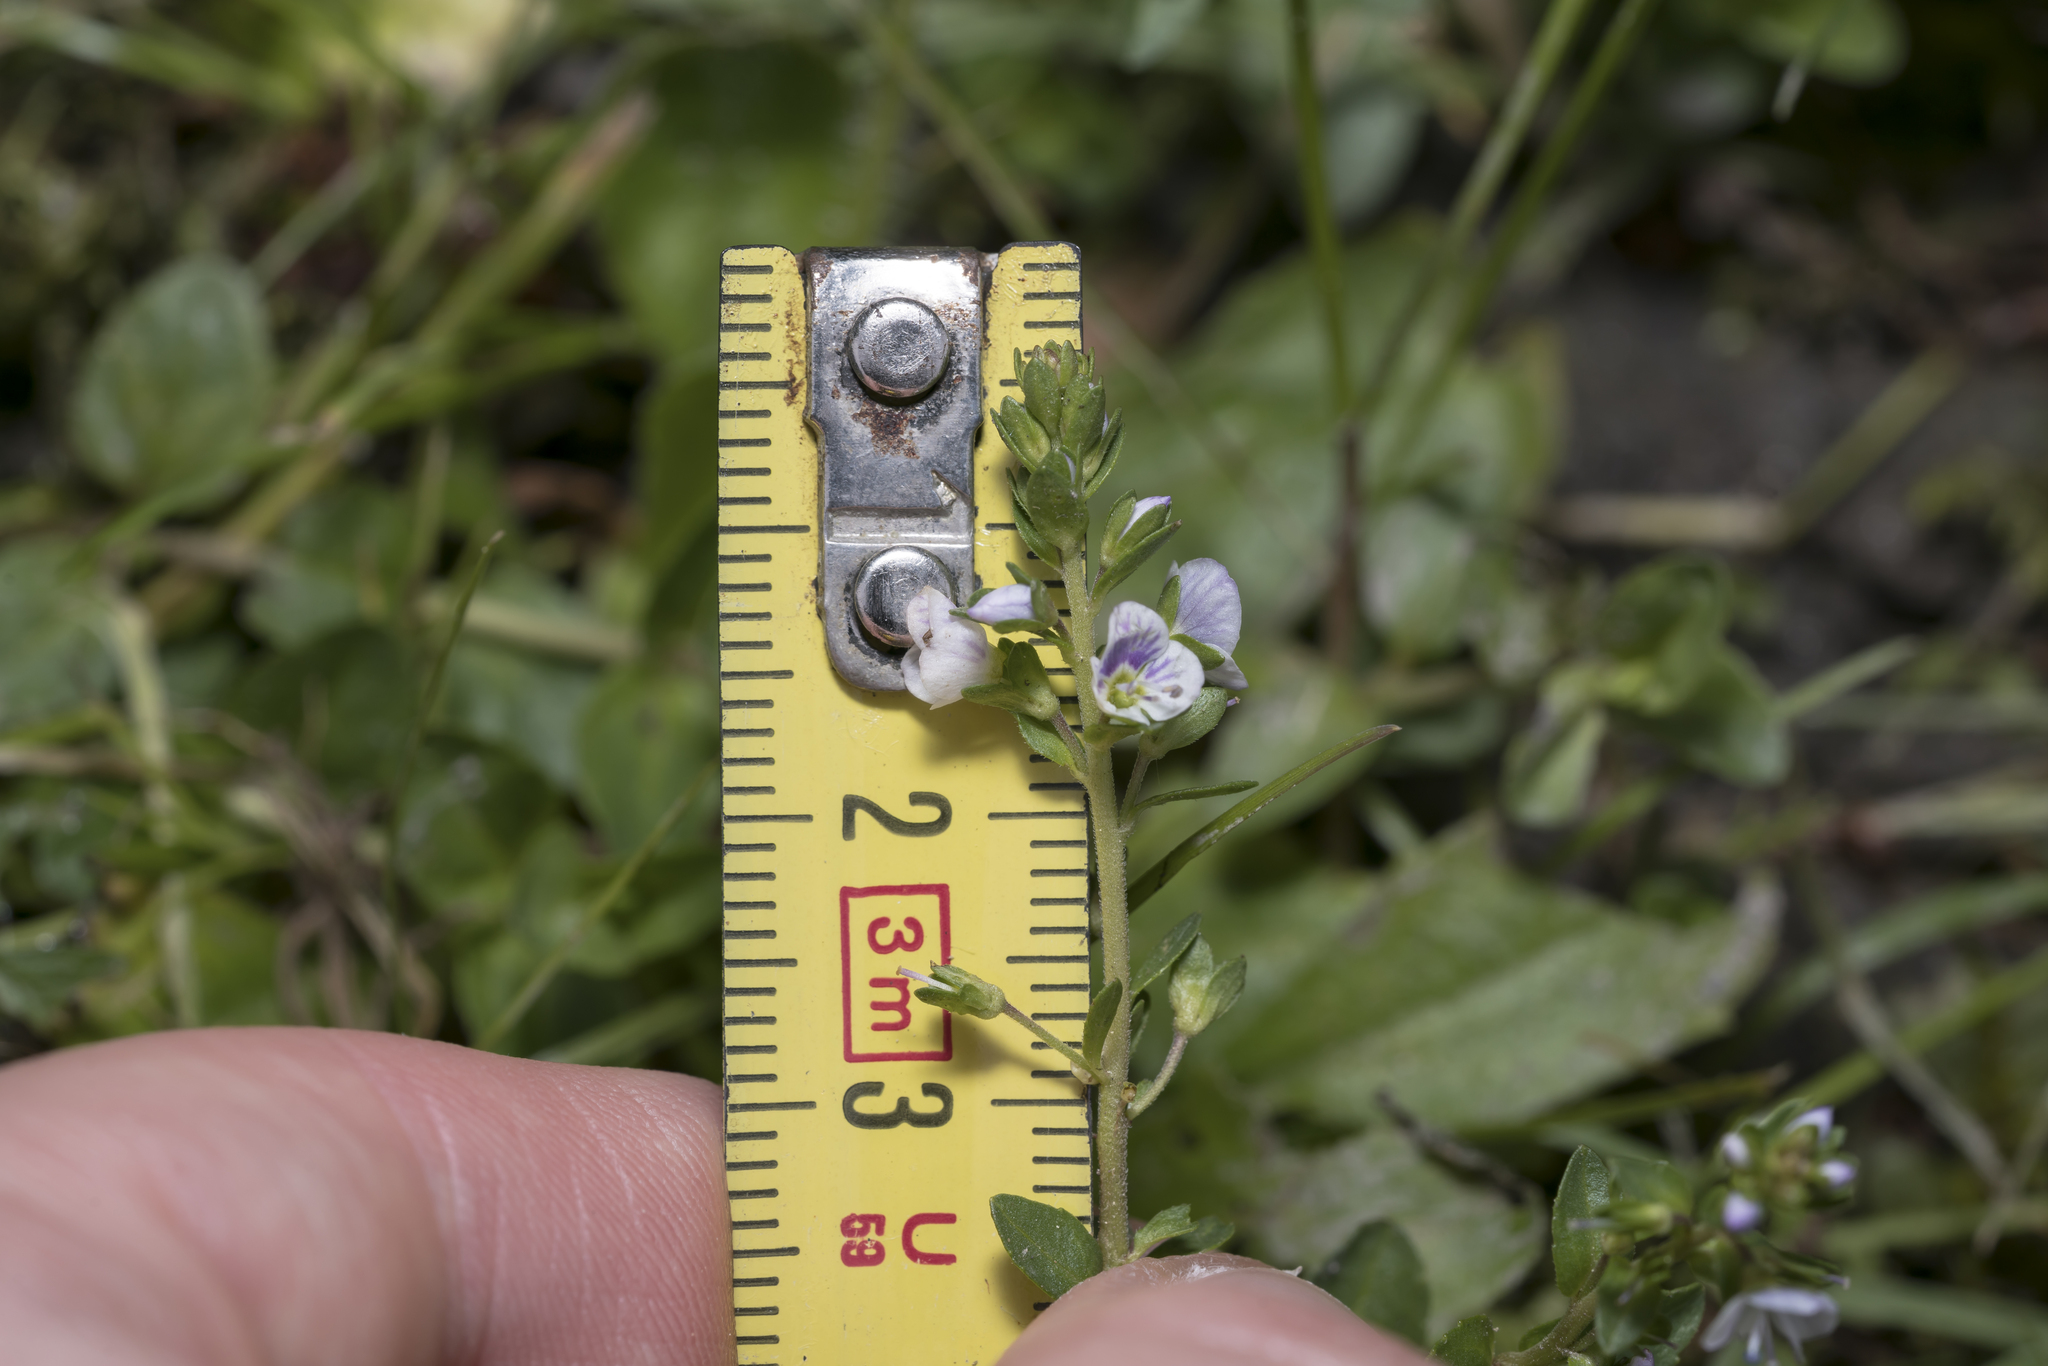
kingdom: Plantae
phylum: Tracheophyta
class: Magnoliopsida
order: Lamiales
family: Plantaginaceae
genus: Veronica
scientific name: Veronica serpyllifolia
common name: Thyme-leaved speedwell
